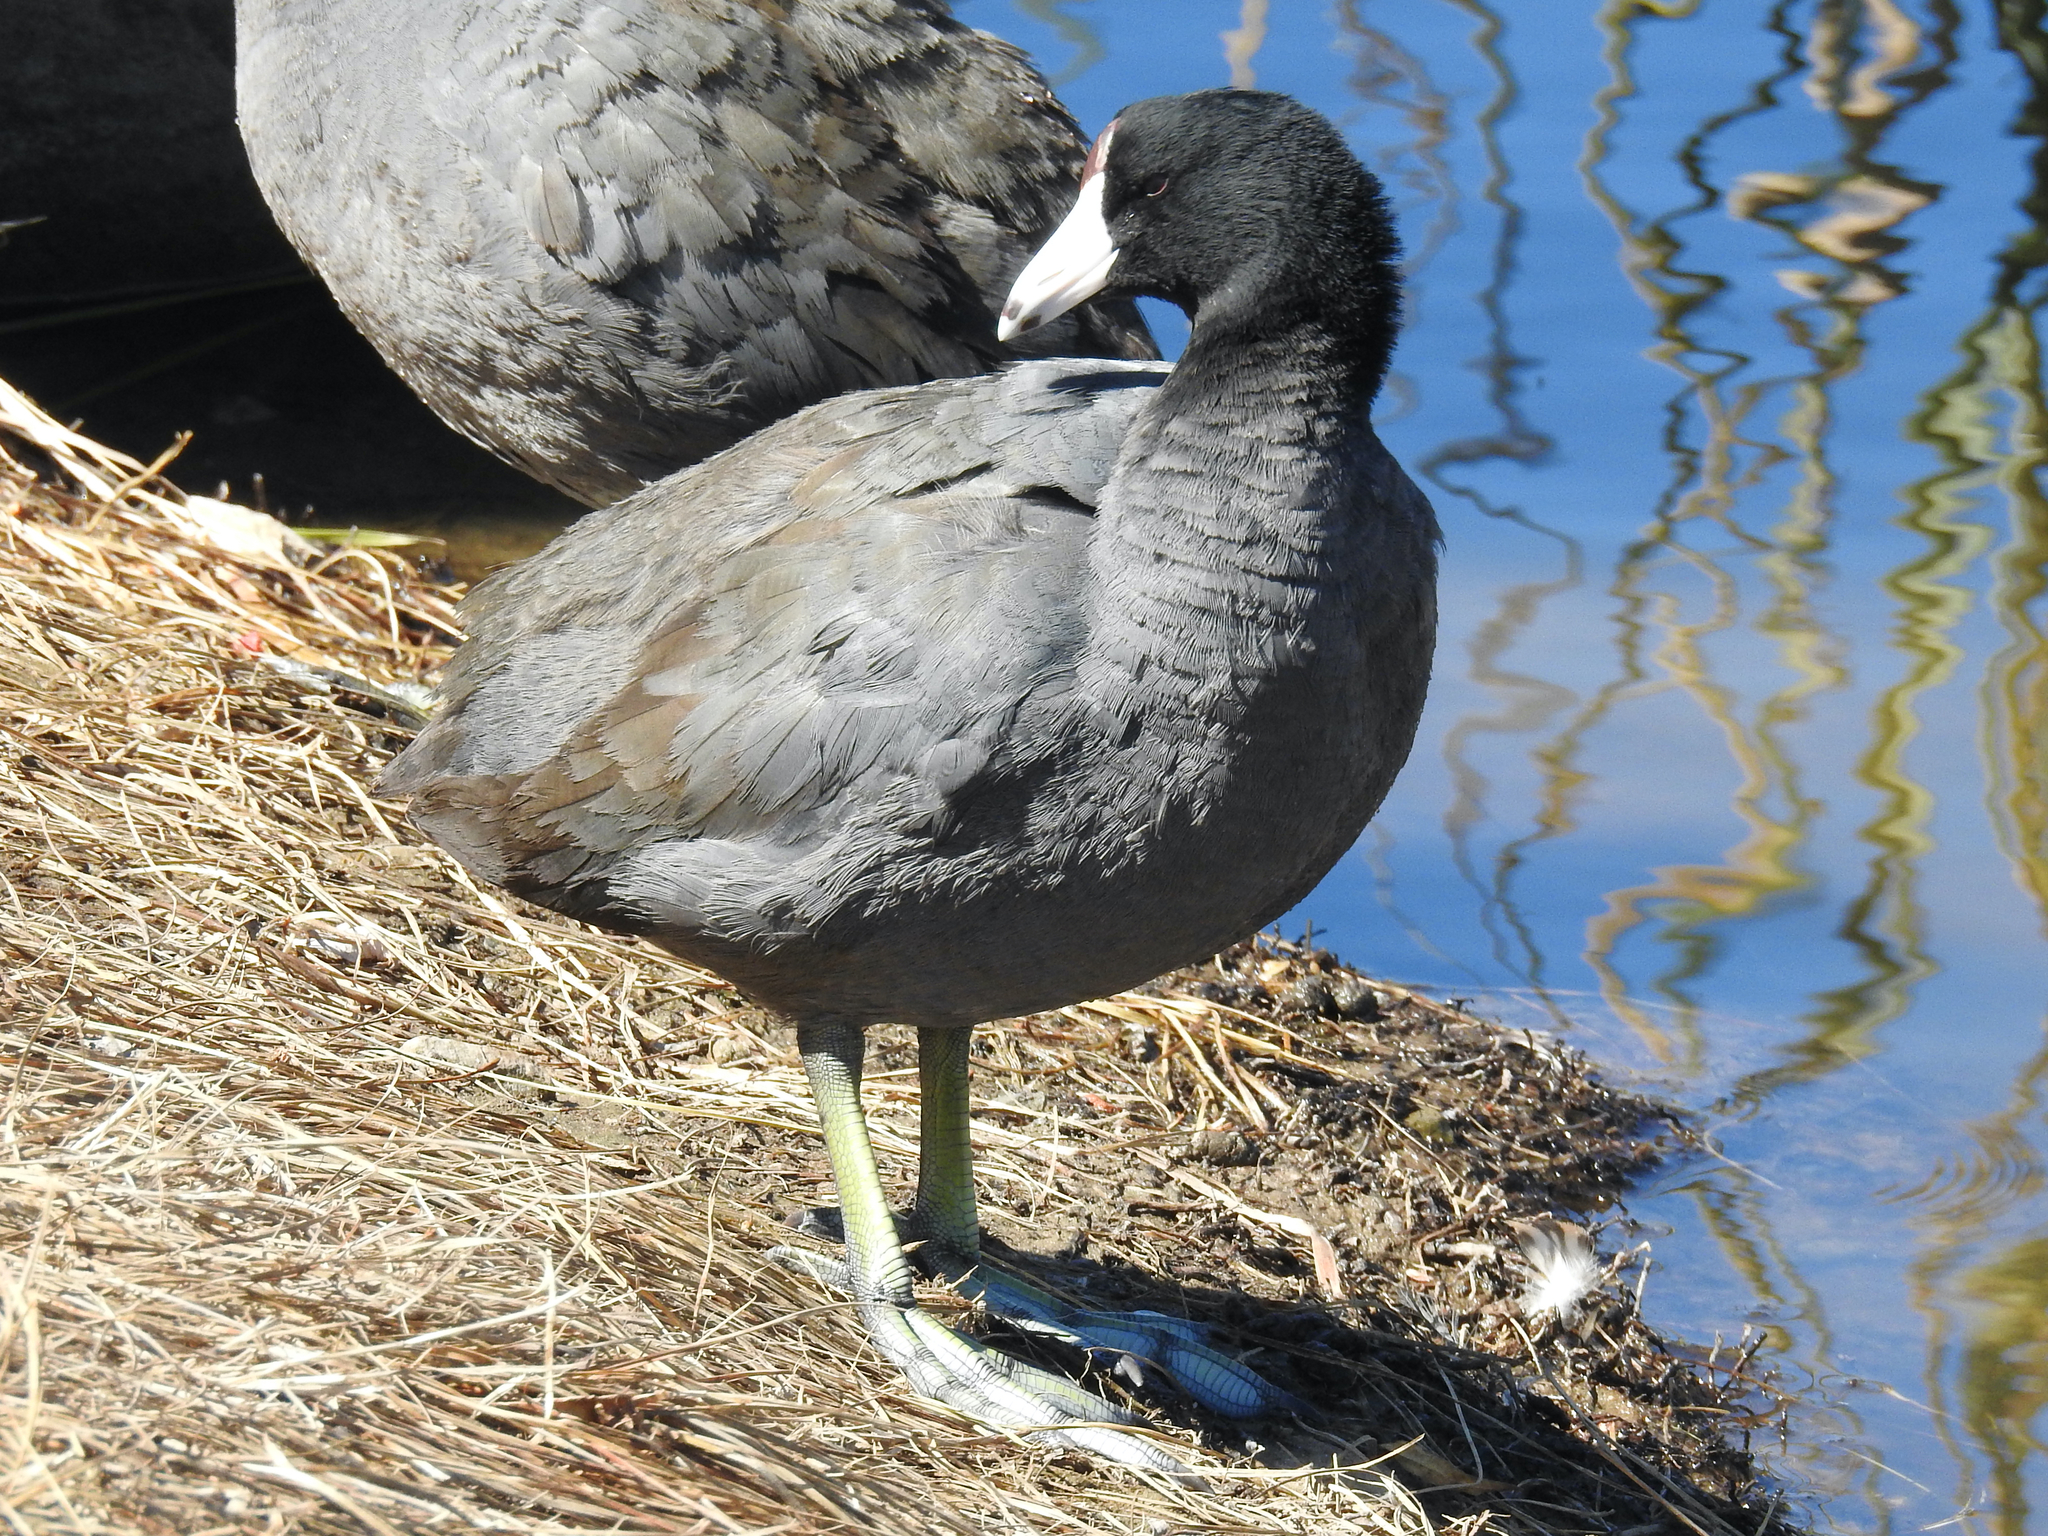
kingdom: Animalia
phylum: Chordata
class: Aves
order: Gruiformes
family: Rallidae
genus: Fulica
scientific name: Fulica americana
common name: American coot
